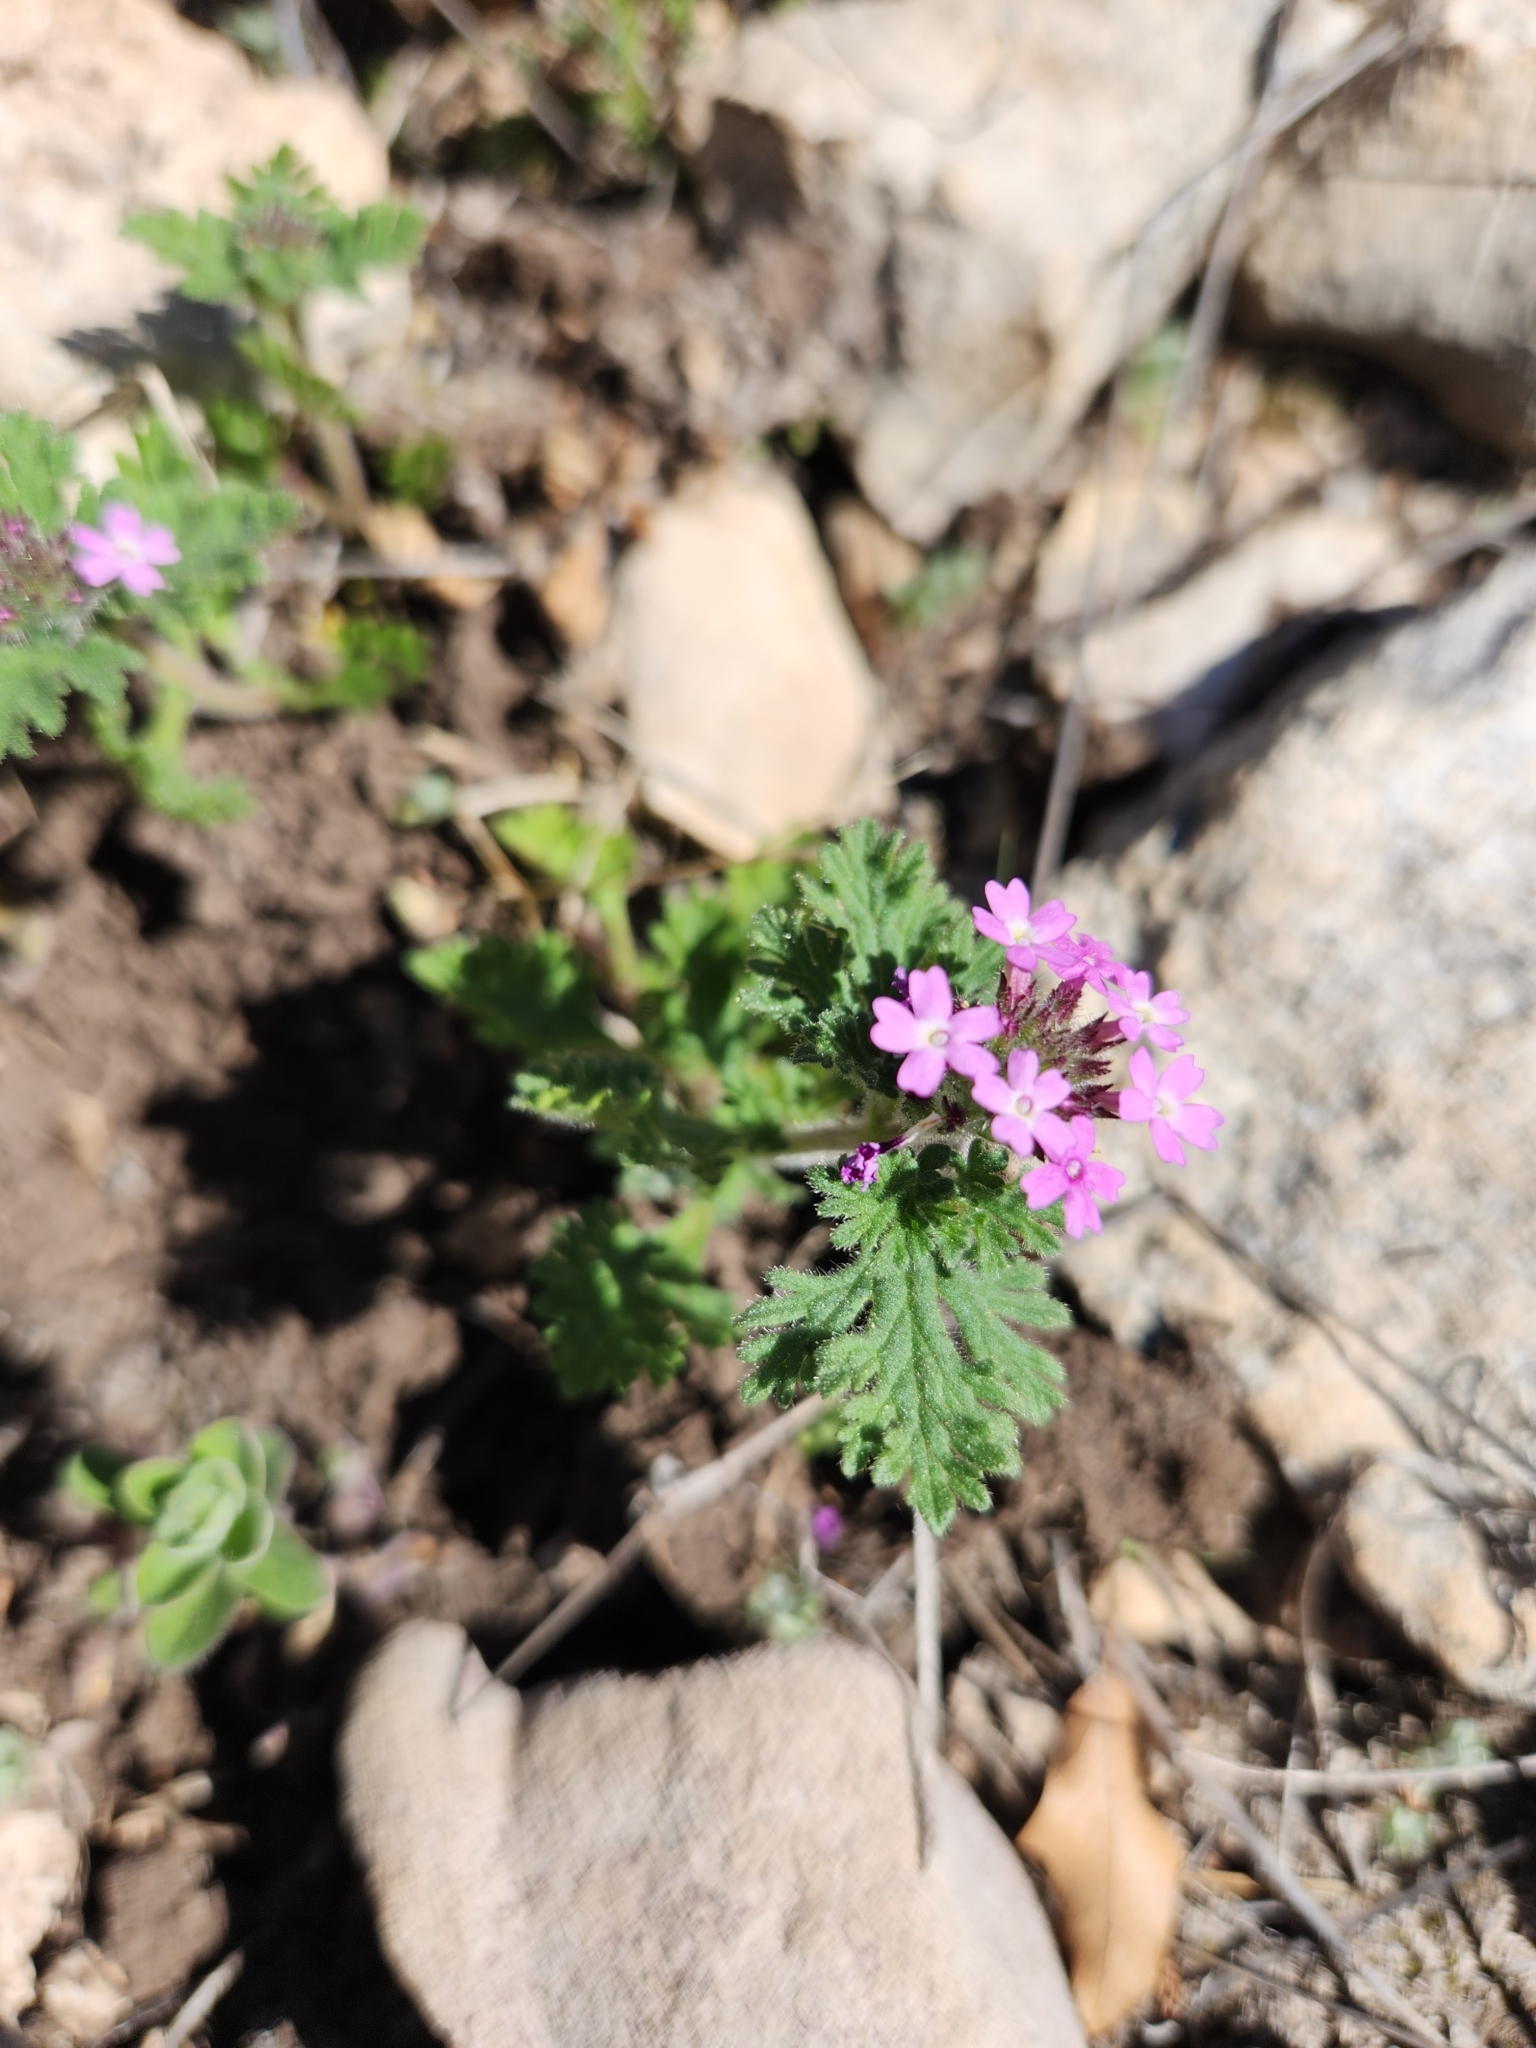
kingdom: Plantae
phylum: Tracheophyta
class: Magnoliopsida
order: Lamiales
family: Verbenaceae
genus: Verbena
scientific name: Verbena pumila
